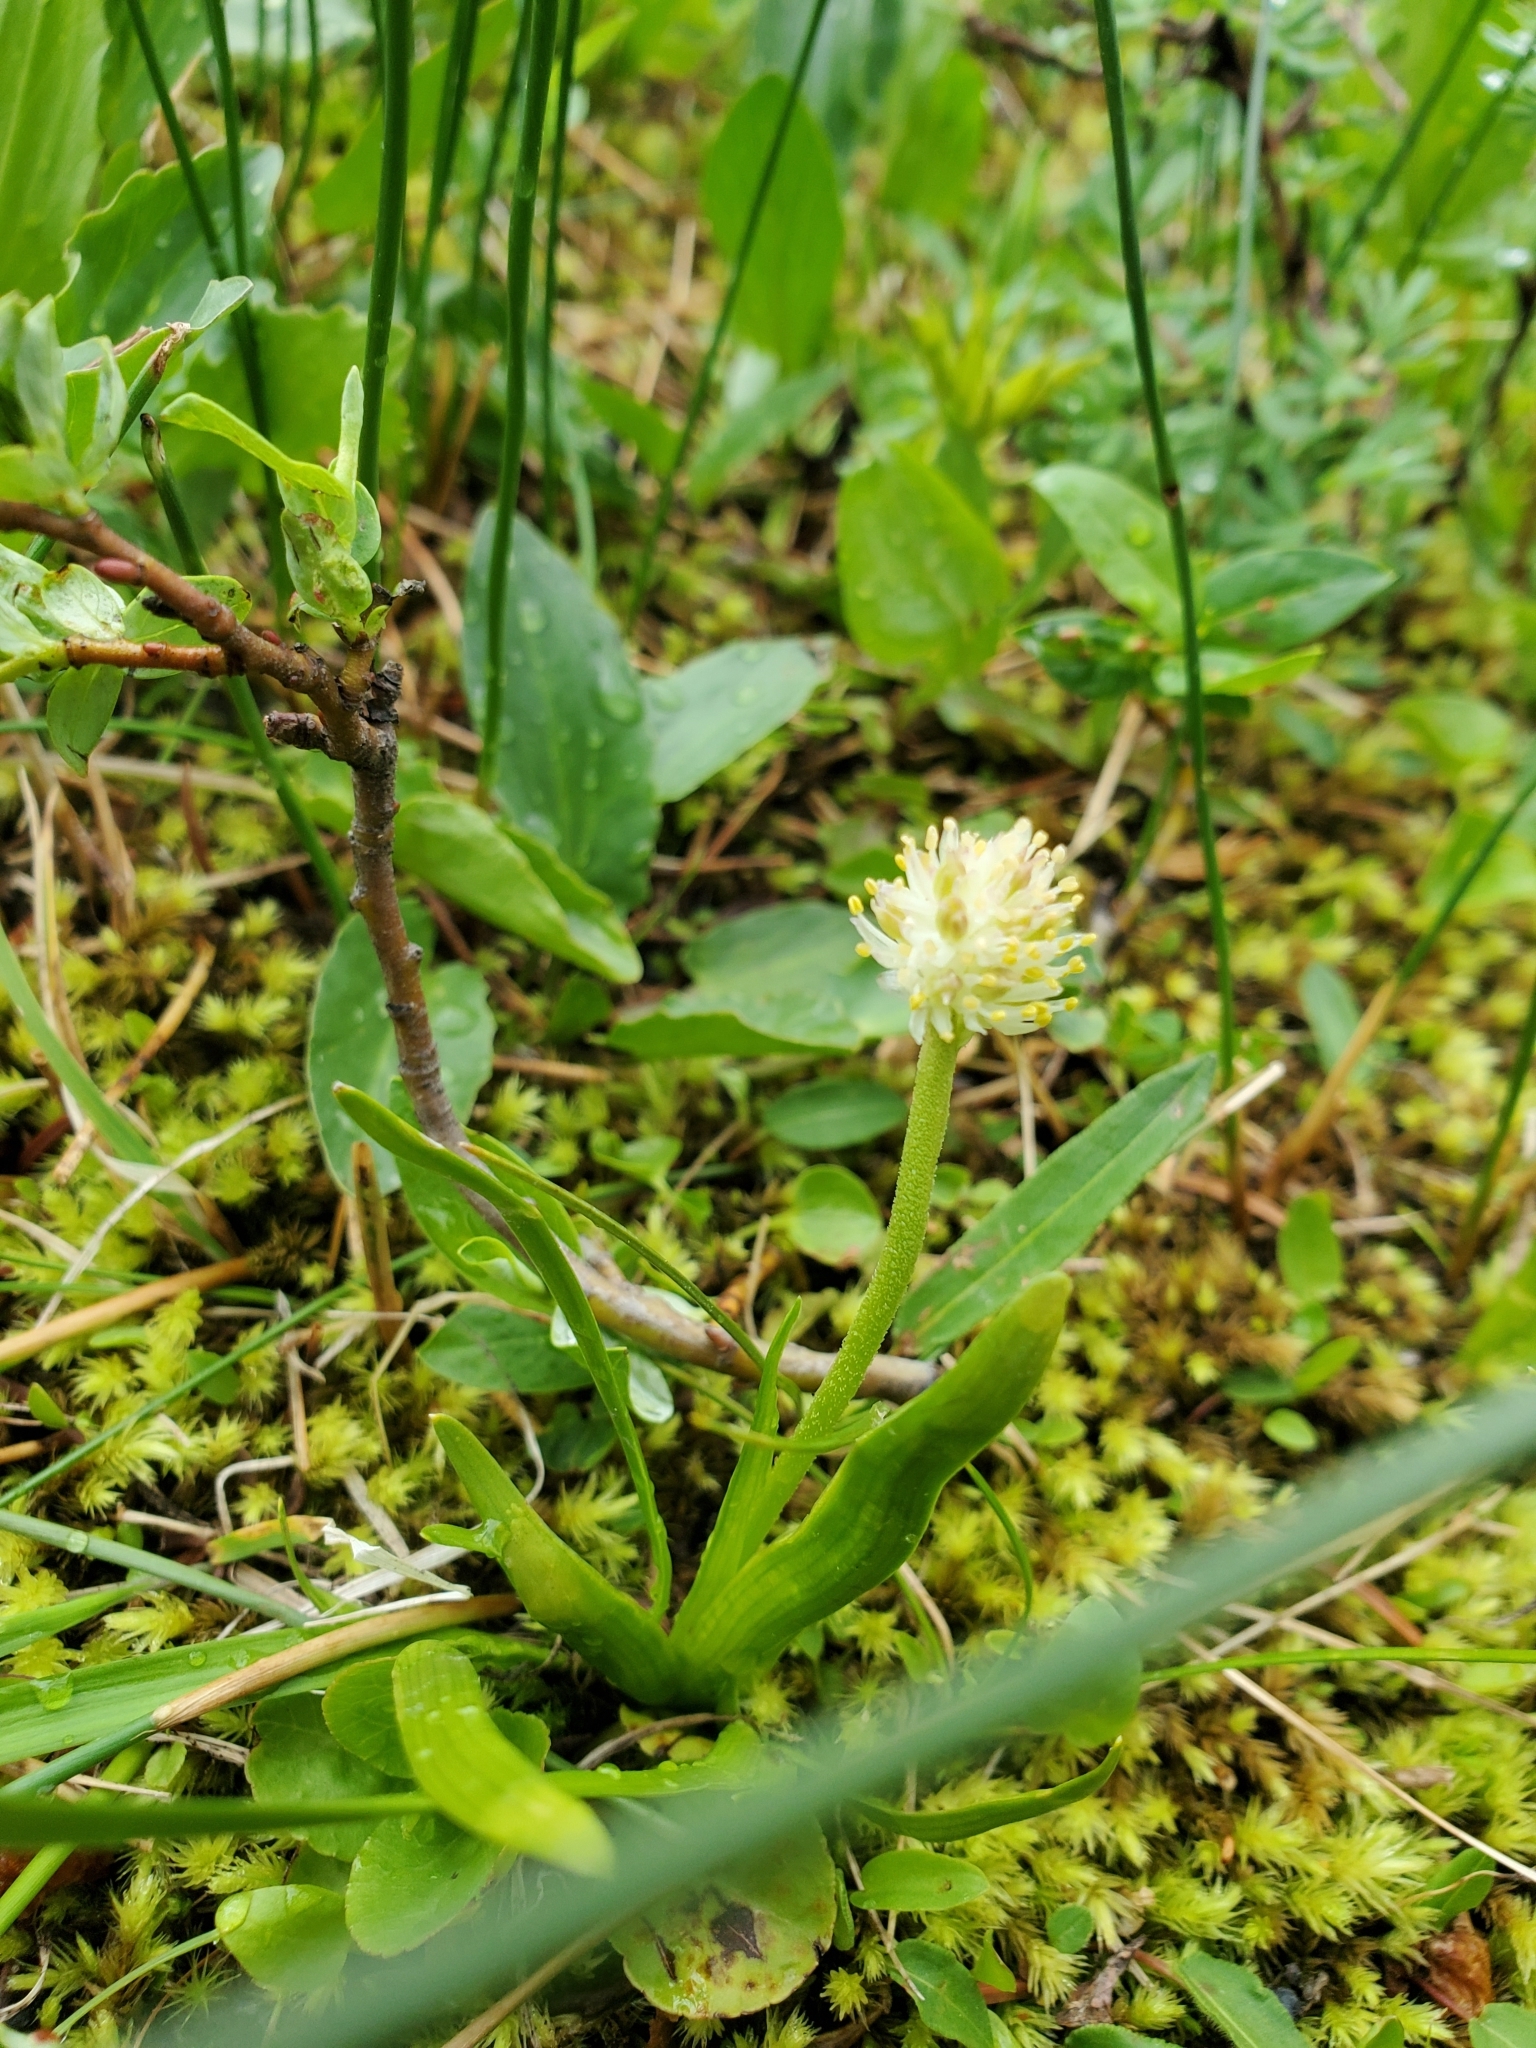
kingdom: Plantae
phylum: Tracheophyta
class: Liliopsida
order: Alismatales
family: Tofieldiaceae
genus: Triantha
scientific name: Triantha glutinosa
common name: Glutinous tofieldia
